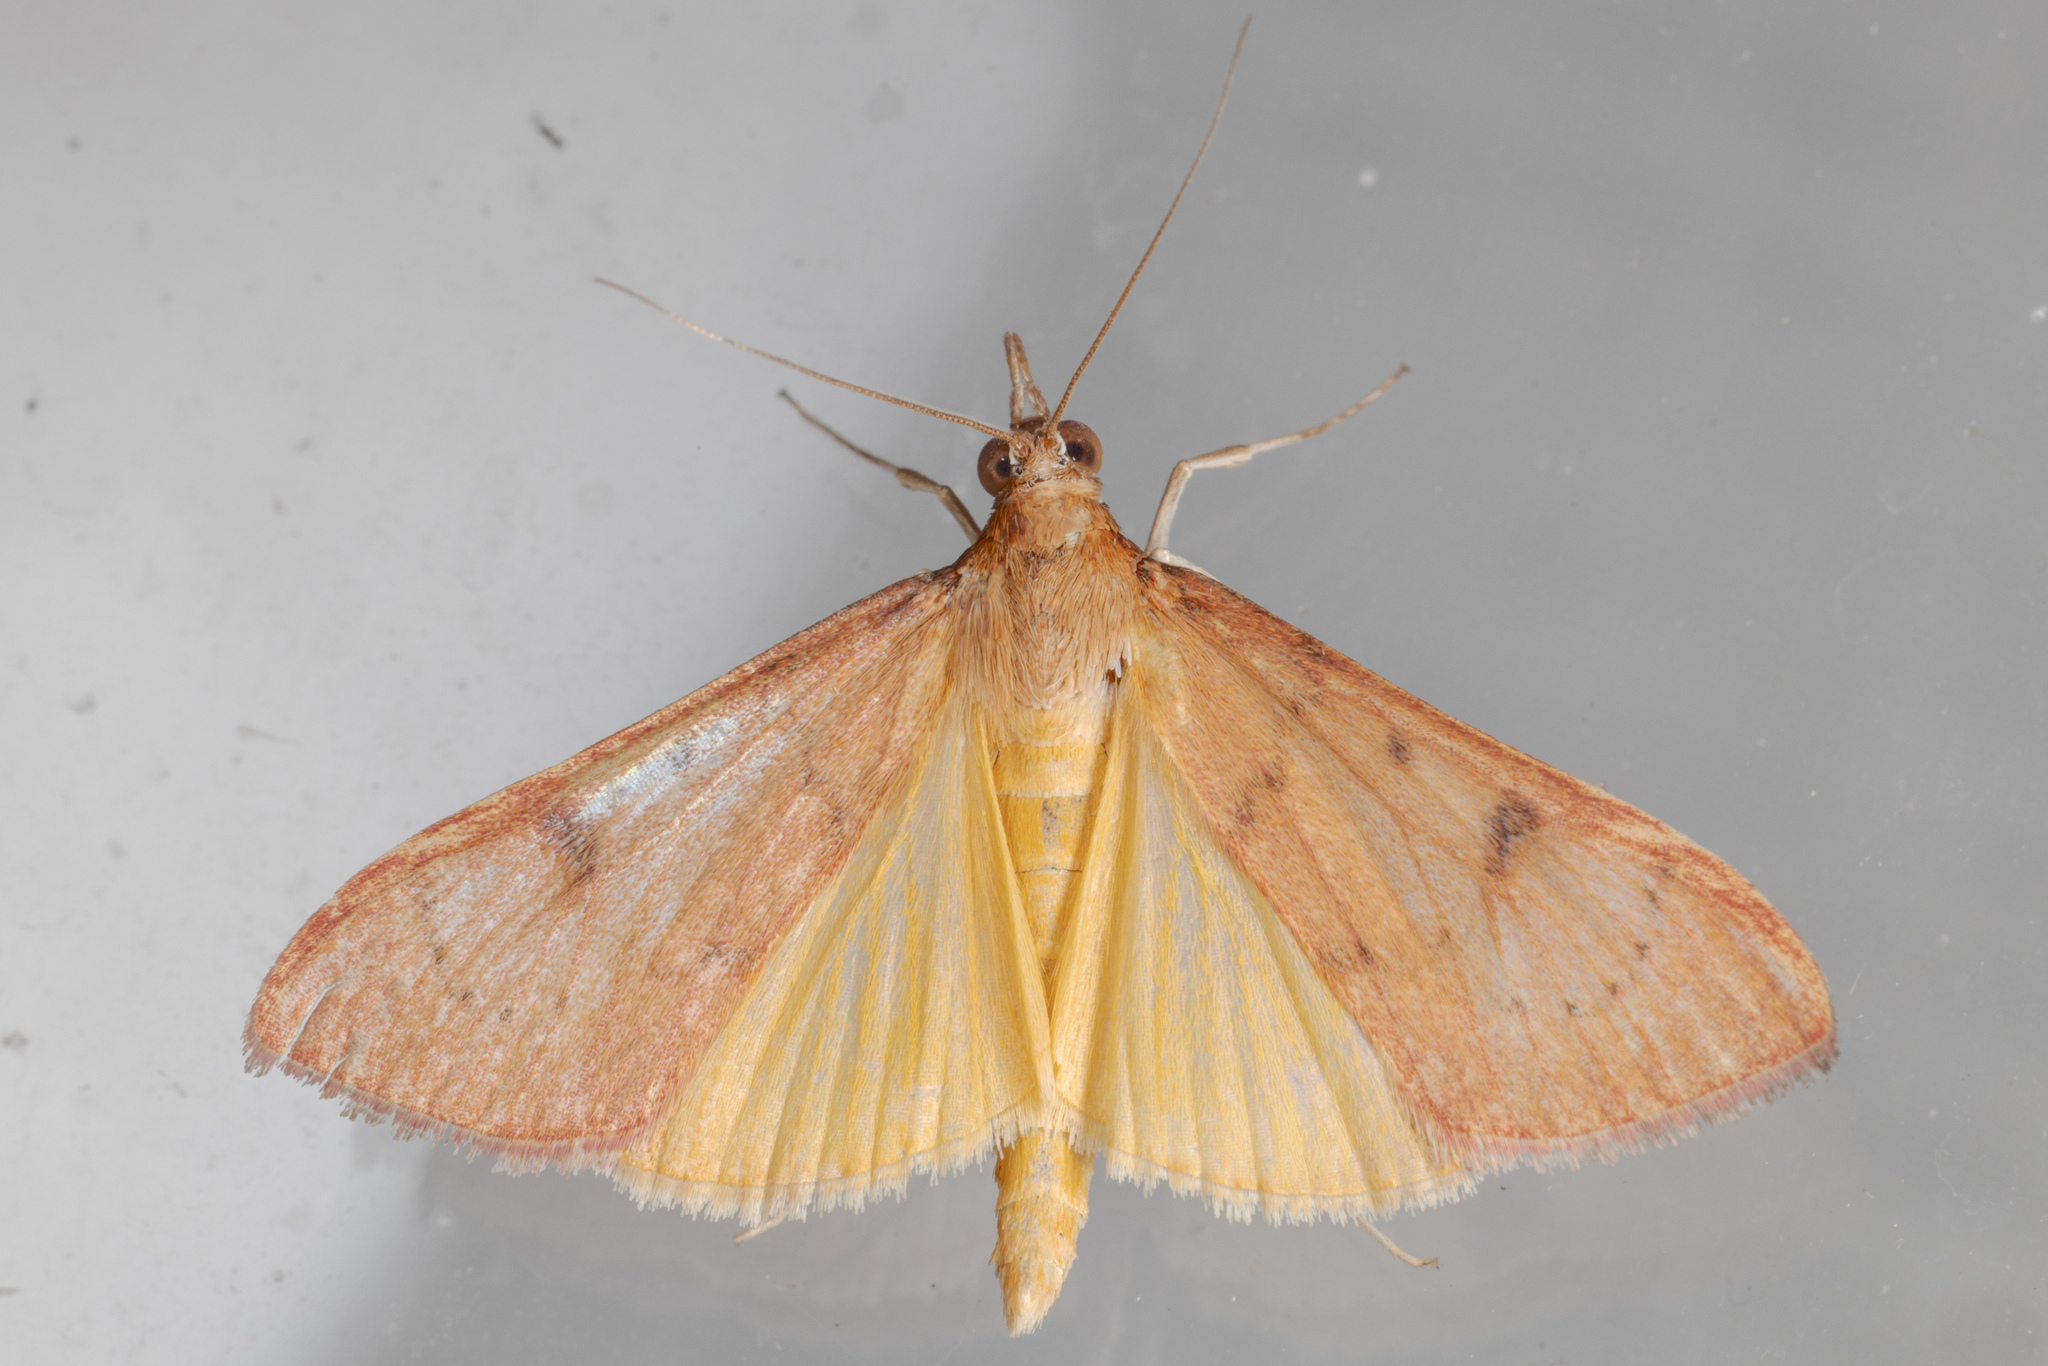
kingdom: Animalia
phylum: Arthropoda
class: Insecta
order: Lepidoptera
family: Crambidae
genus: Uresiphita
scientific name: Uresiphita reversalis
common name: Genista broom moth
